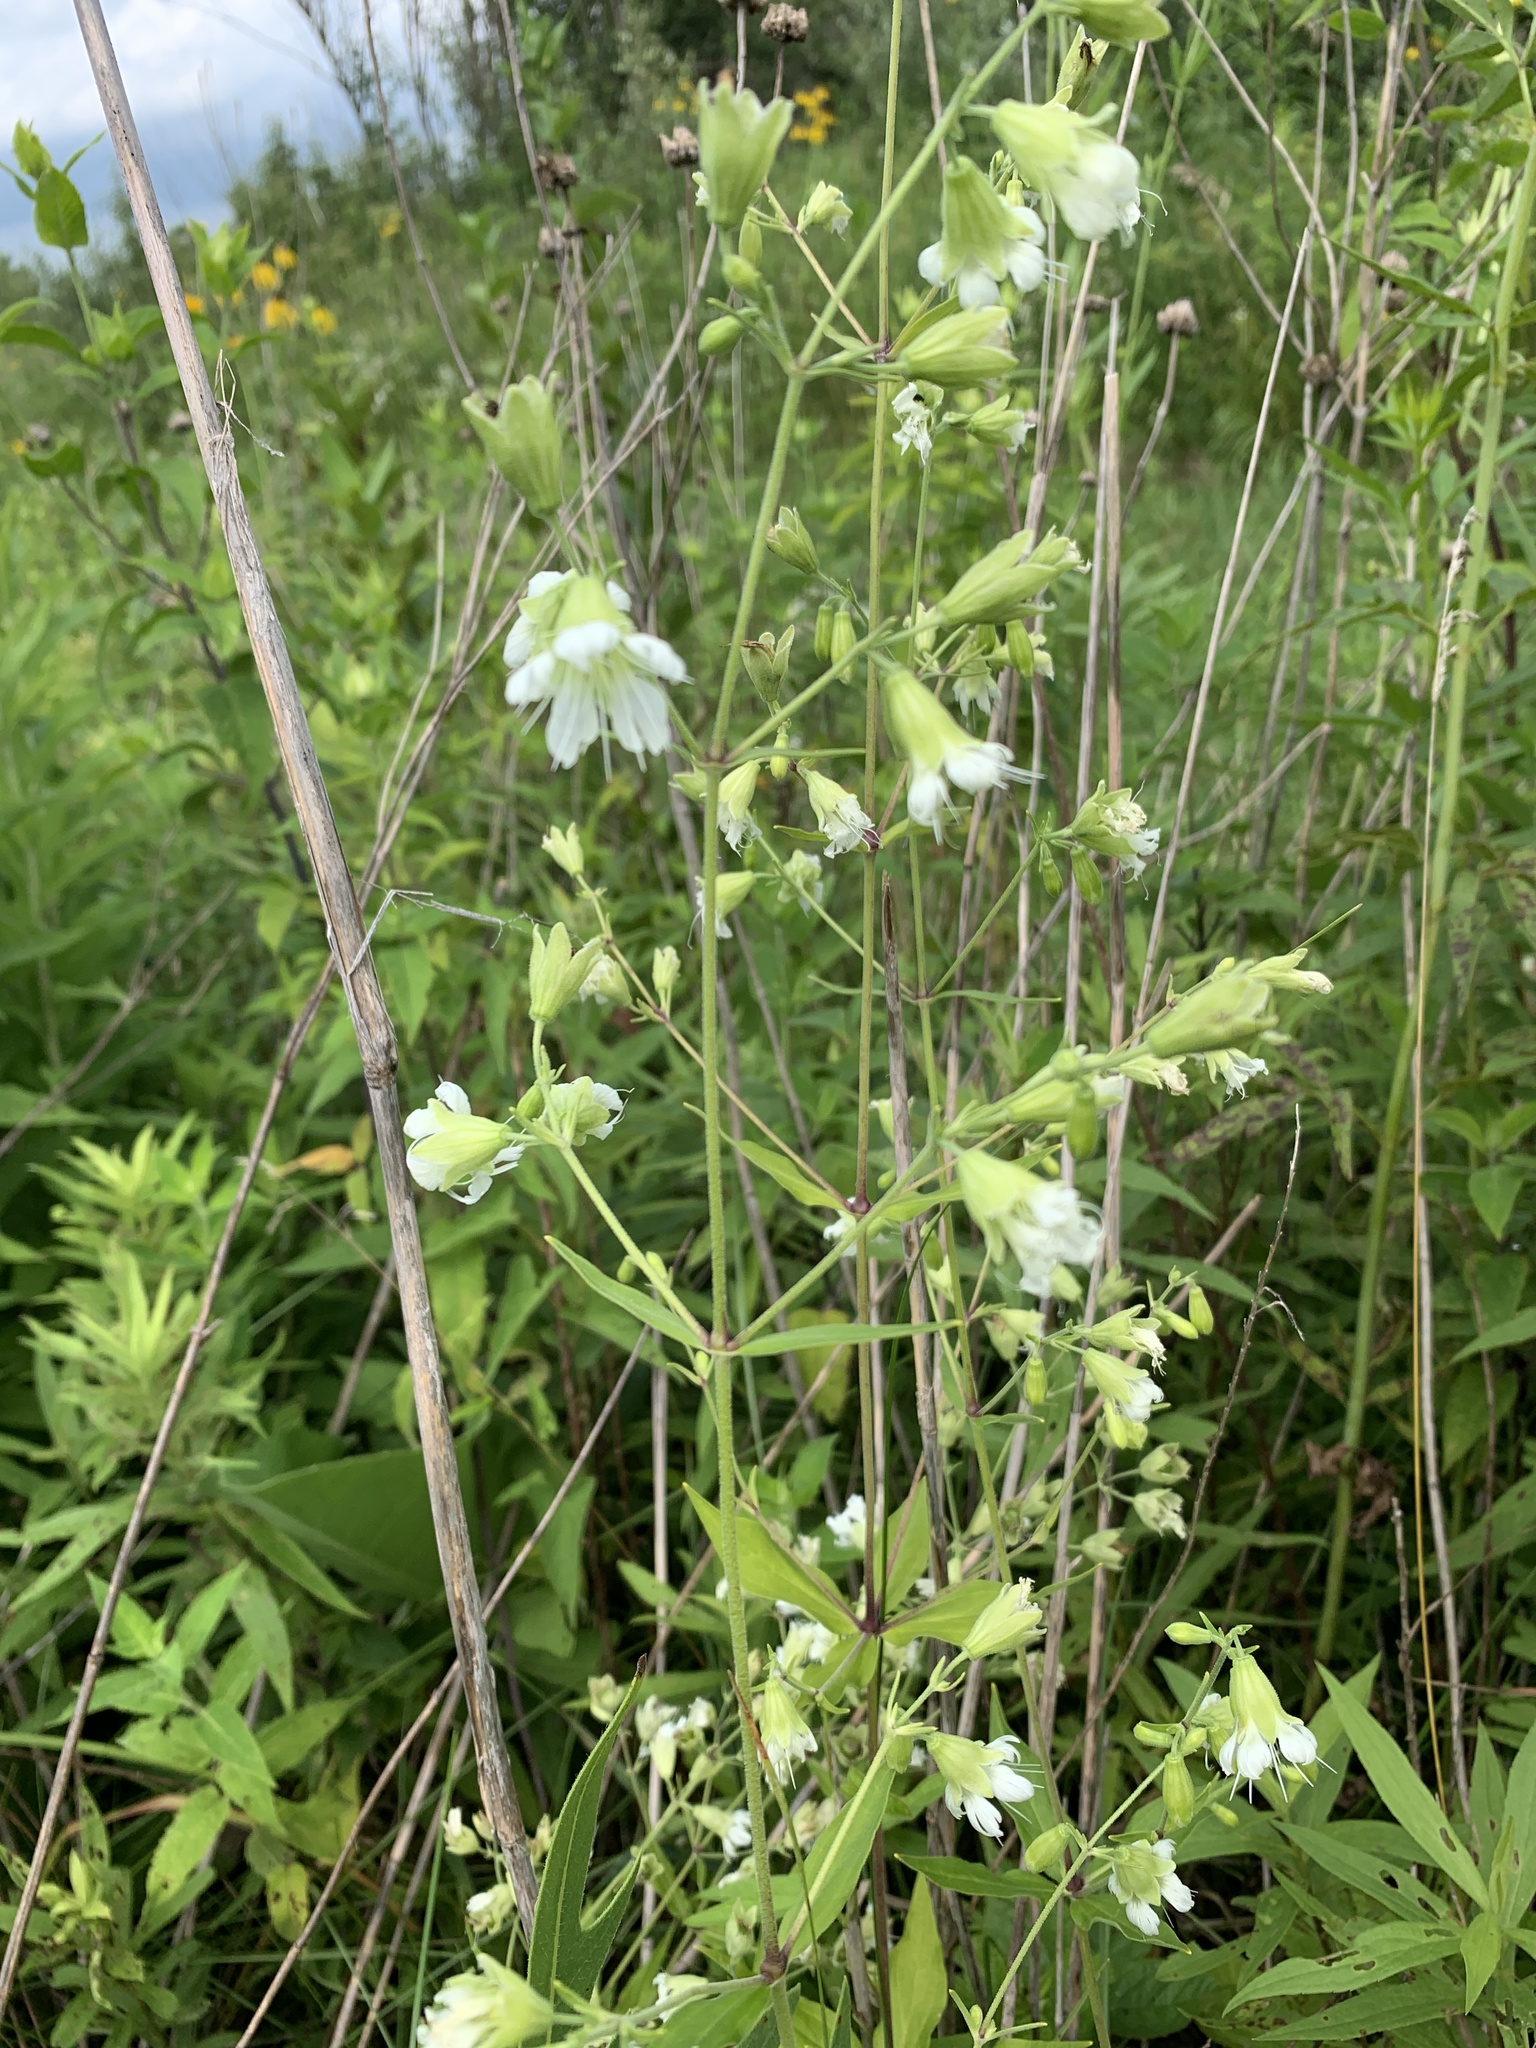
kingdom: Plantae
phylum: Tracheophyta
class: Magnoliopsida
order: Caryophyllales
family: Caryophyllaceae
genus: Silene
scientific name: Silene stellata
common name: Starry campion
